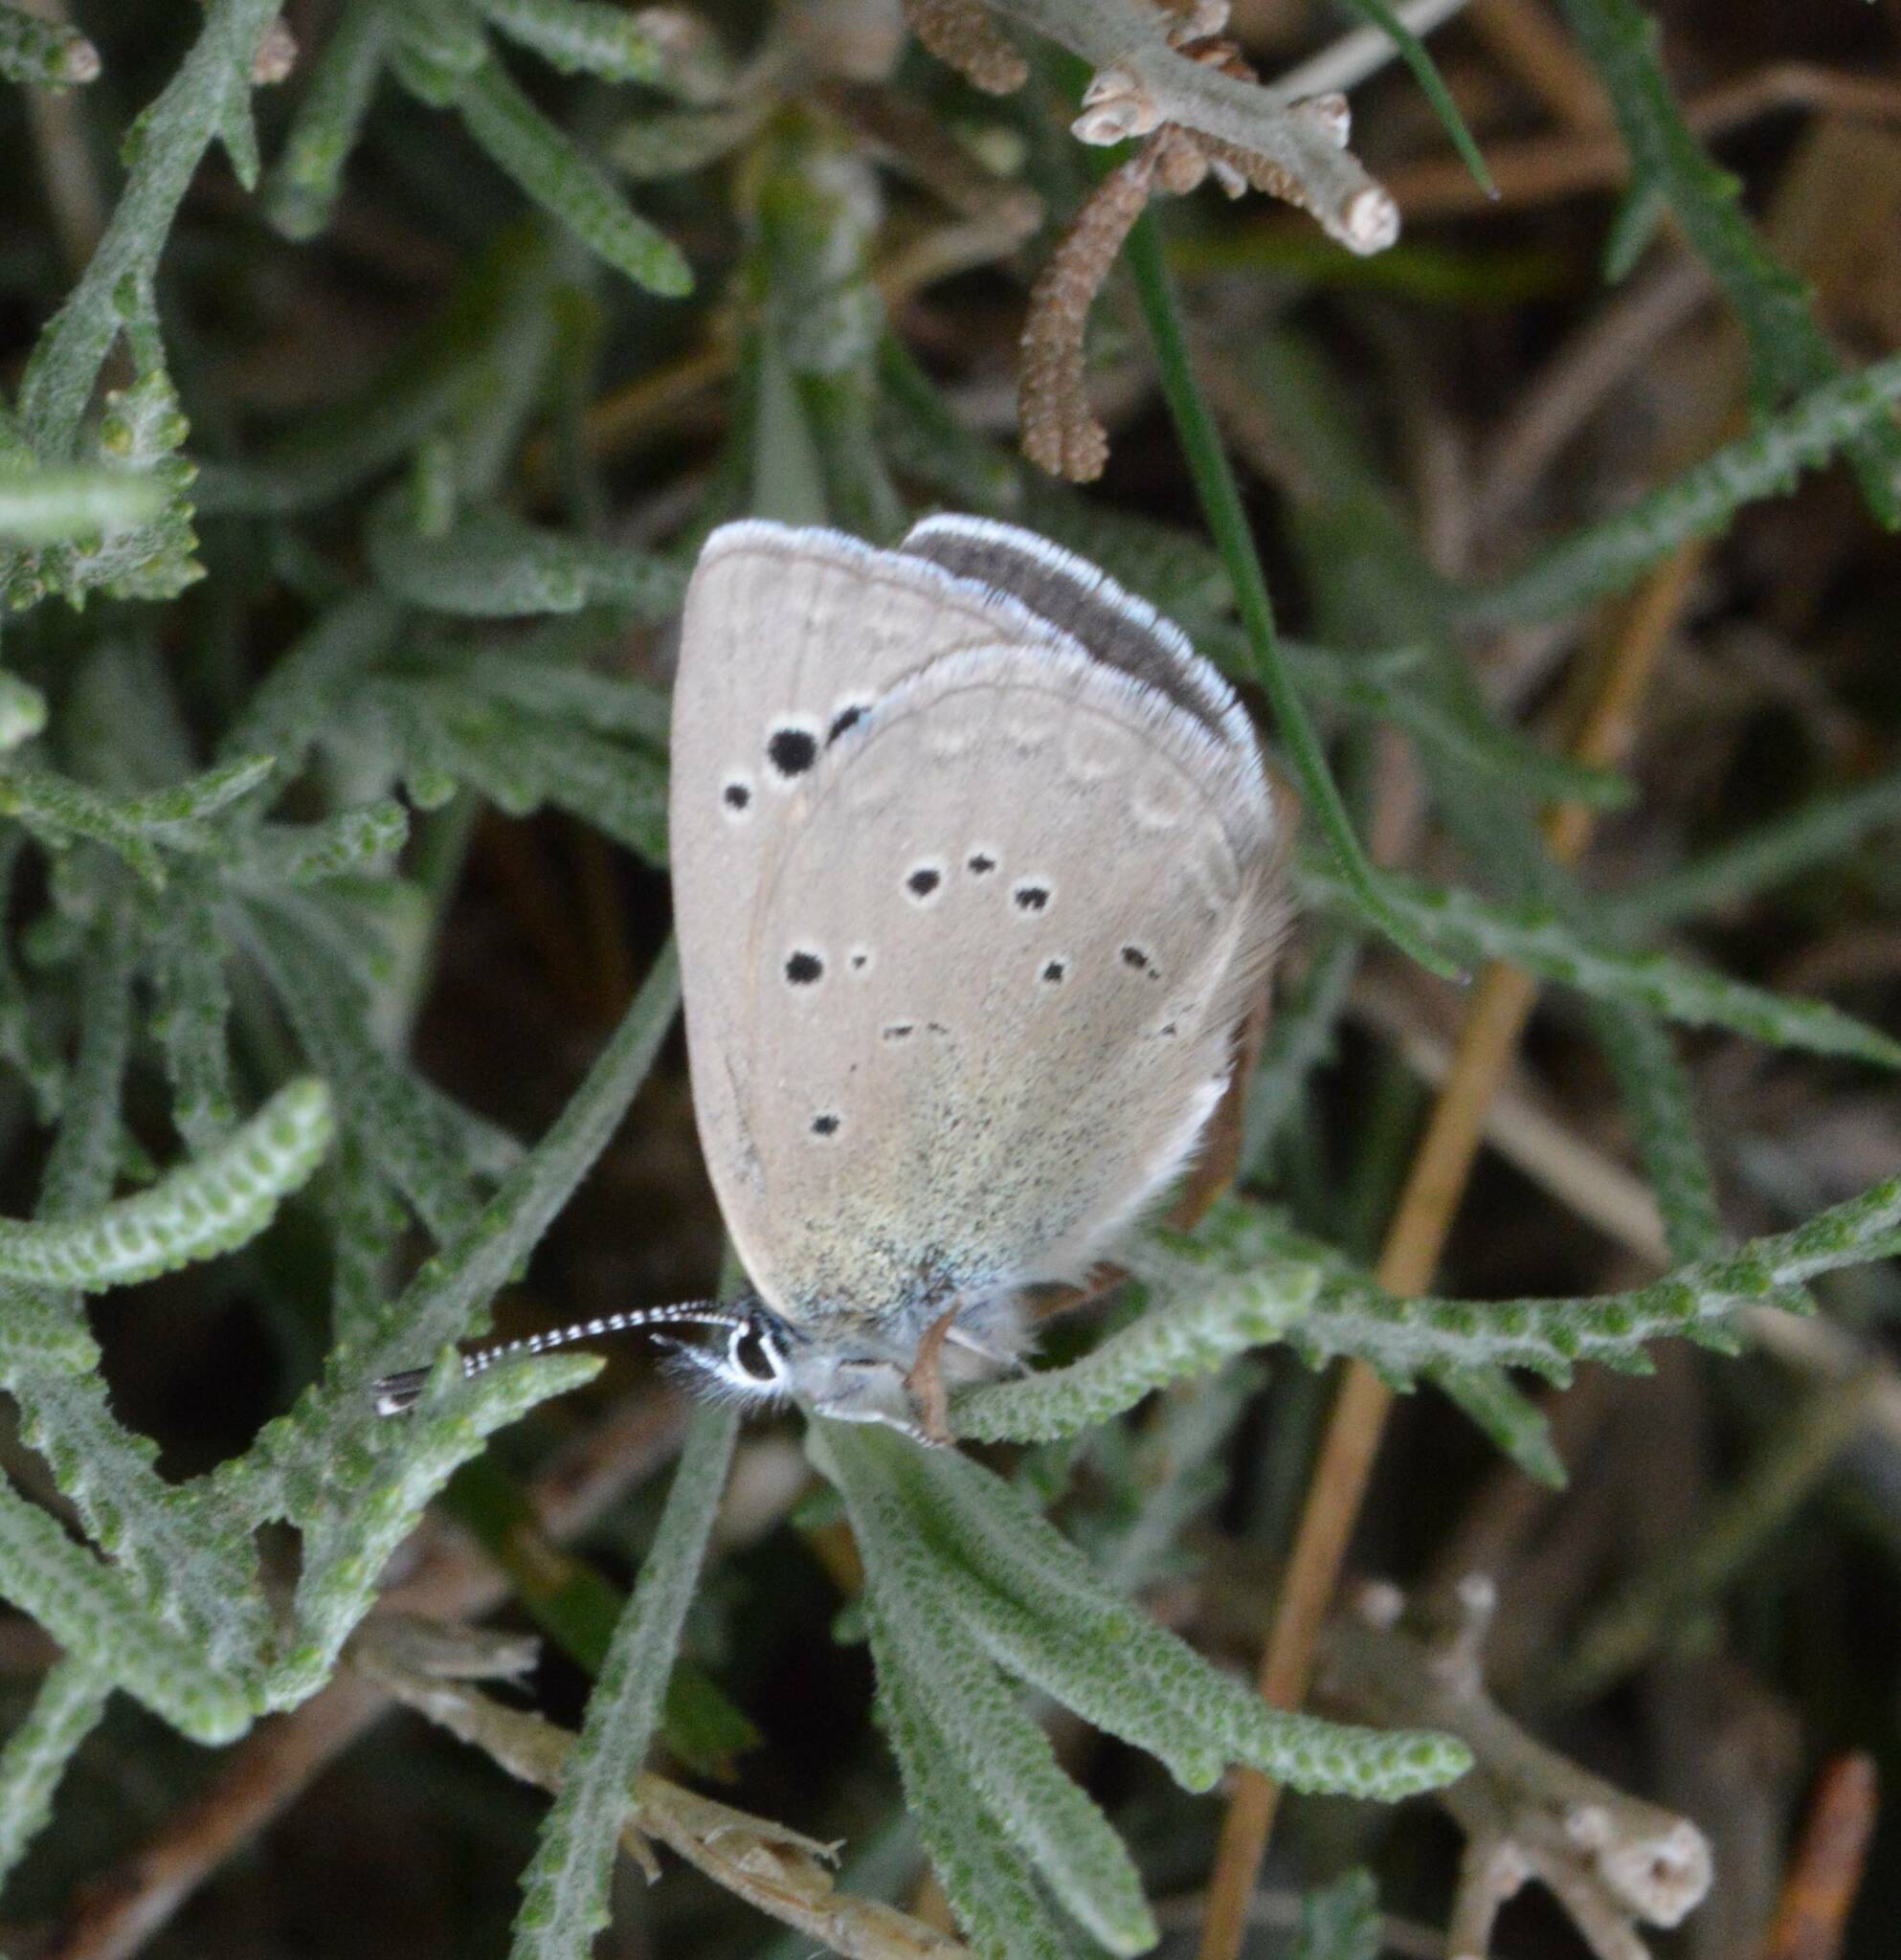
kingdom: Animalia
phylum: Arthropoda
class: Insecta
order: Lepidoptera
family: Lycaenidae
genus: Glaucopsyche
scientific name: Glaucopsyche melanops
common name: Black-eyed blue
